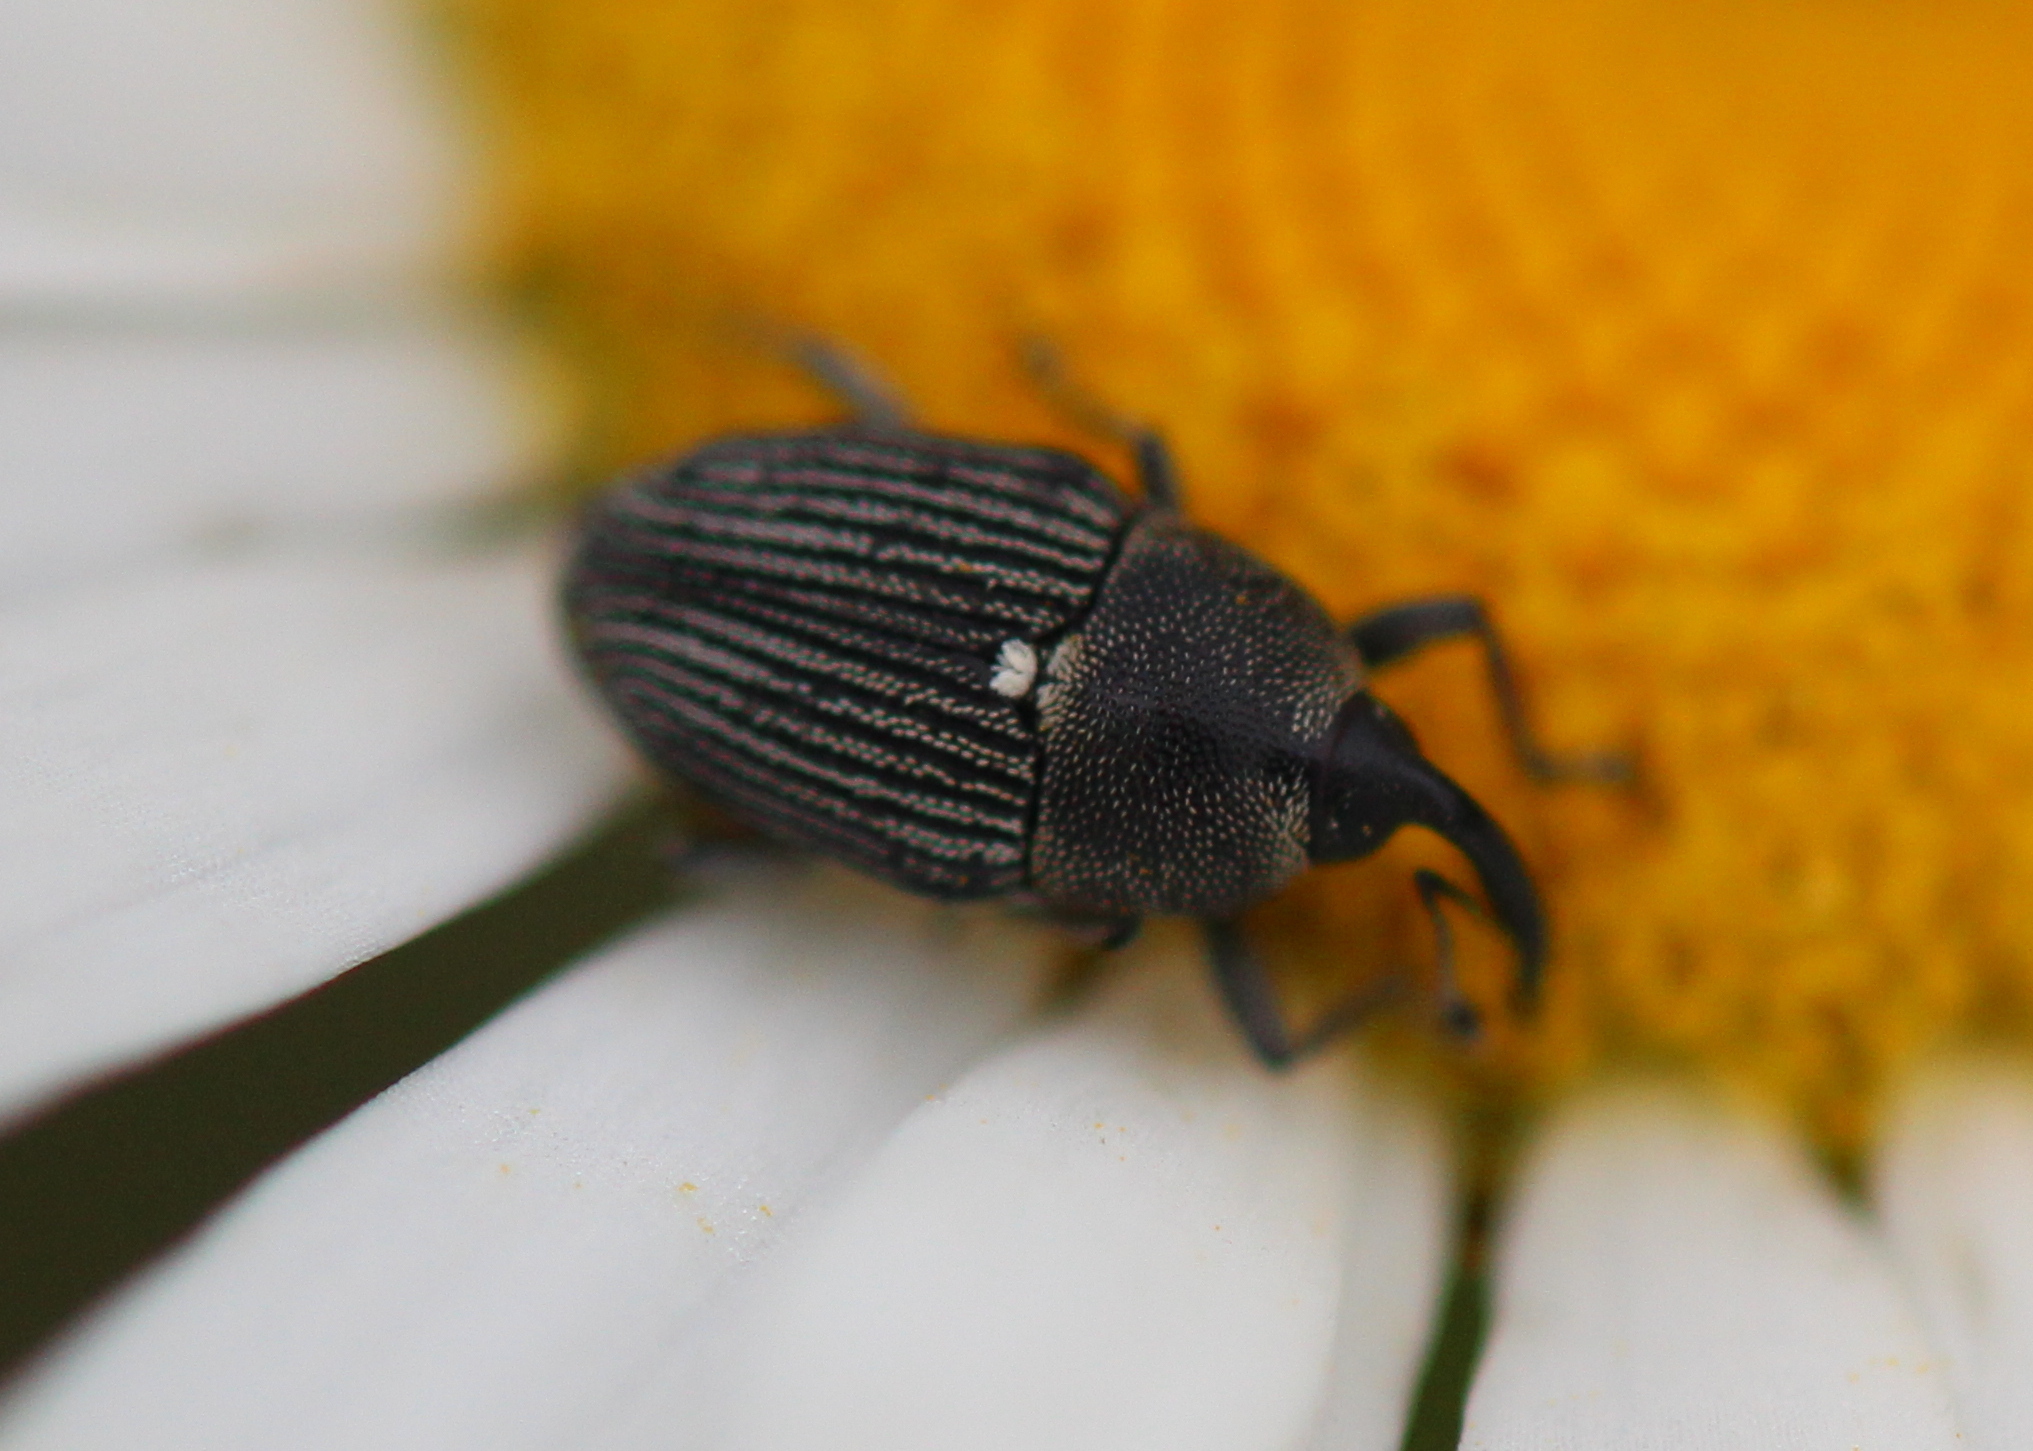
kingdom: Animalia
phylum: Arthropoda
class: Insecta
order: Coleoptera
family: Curculionidae
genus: Odontocorynus
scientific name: Odontocorynus umbellae
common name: Daisy flower weevil
